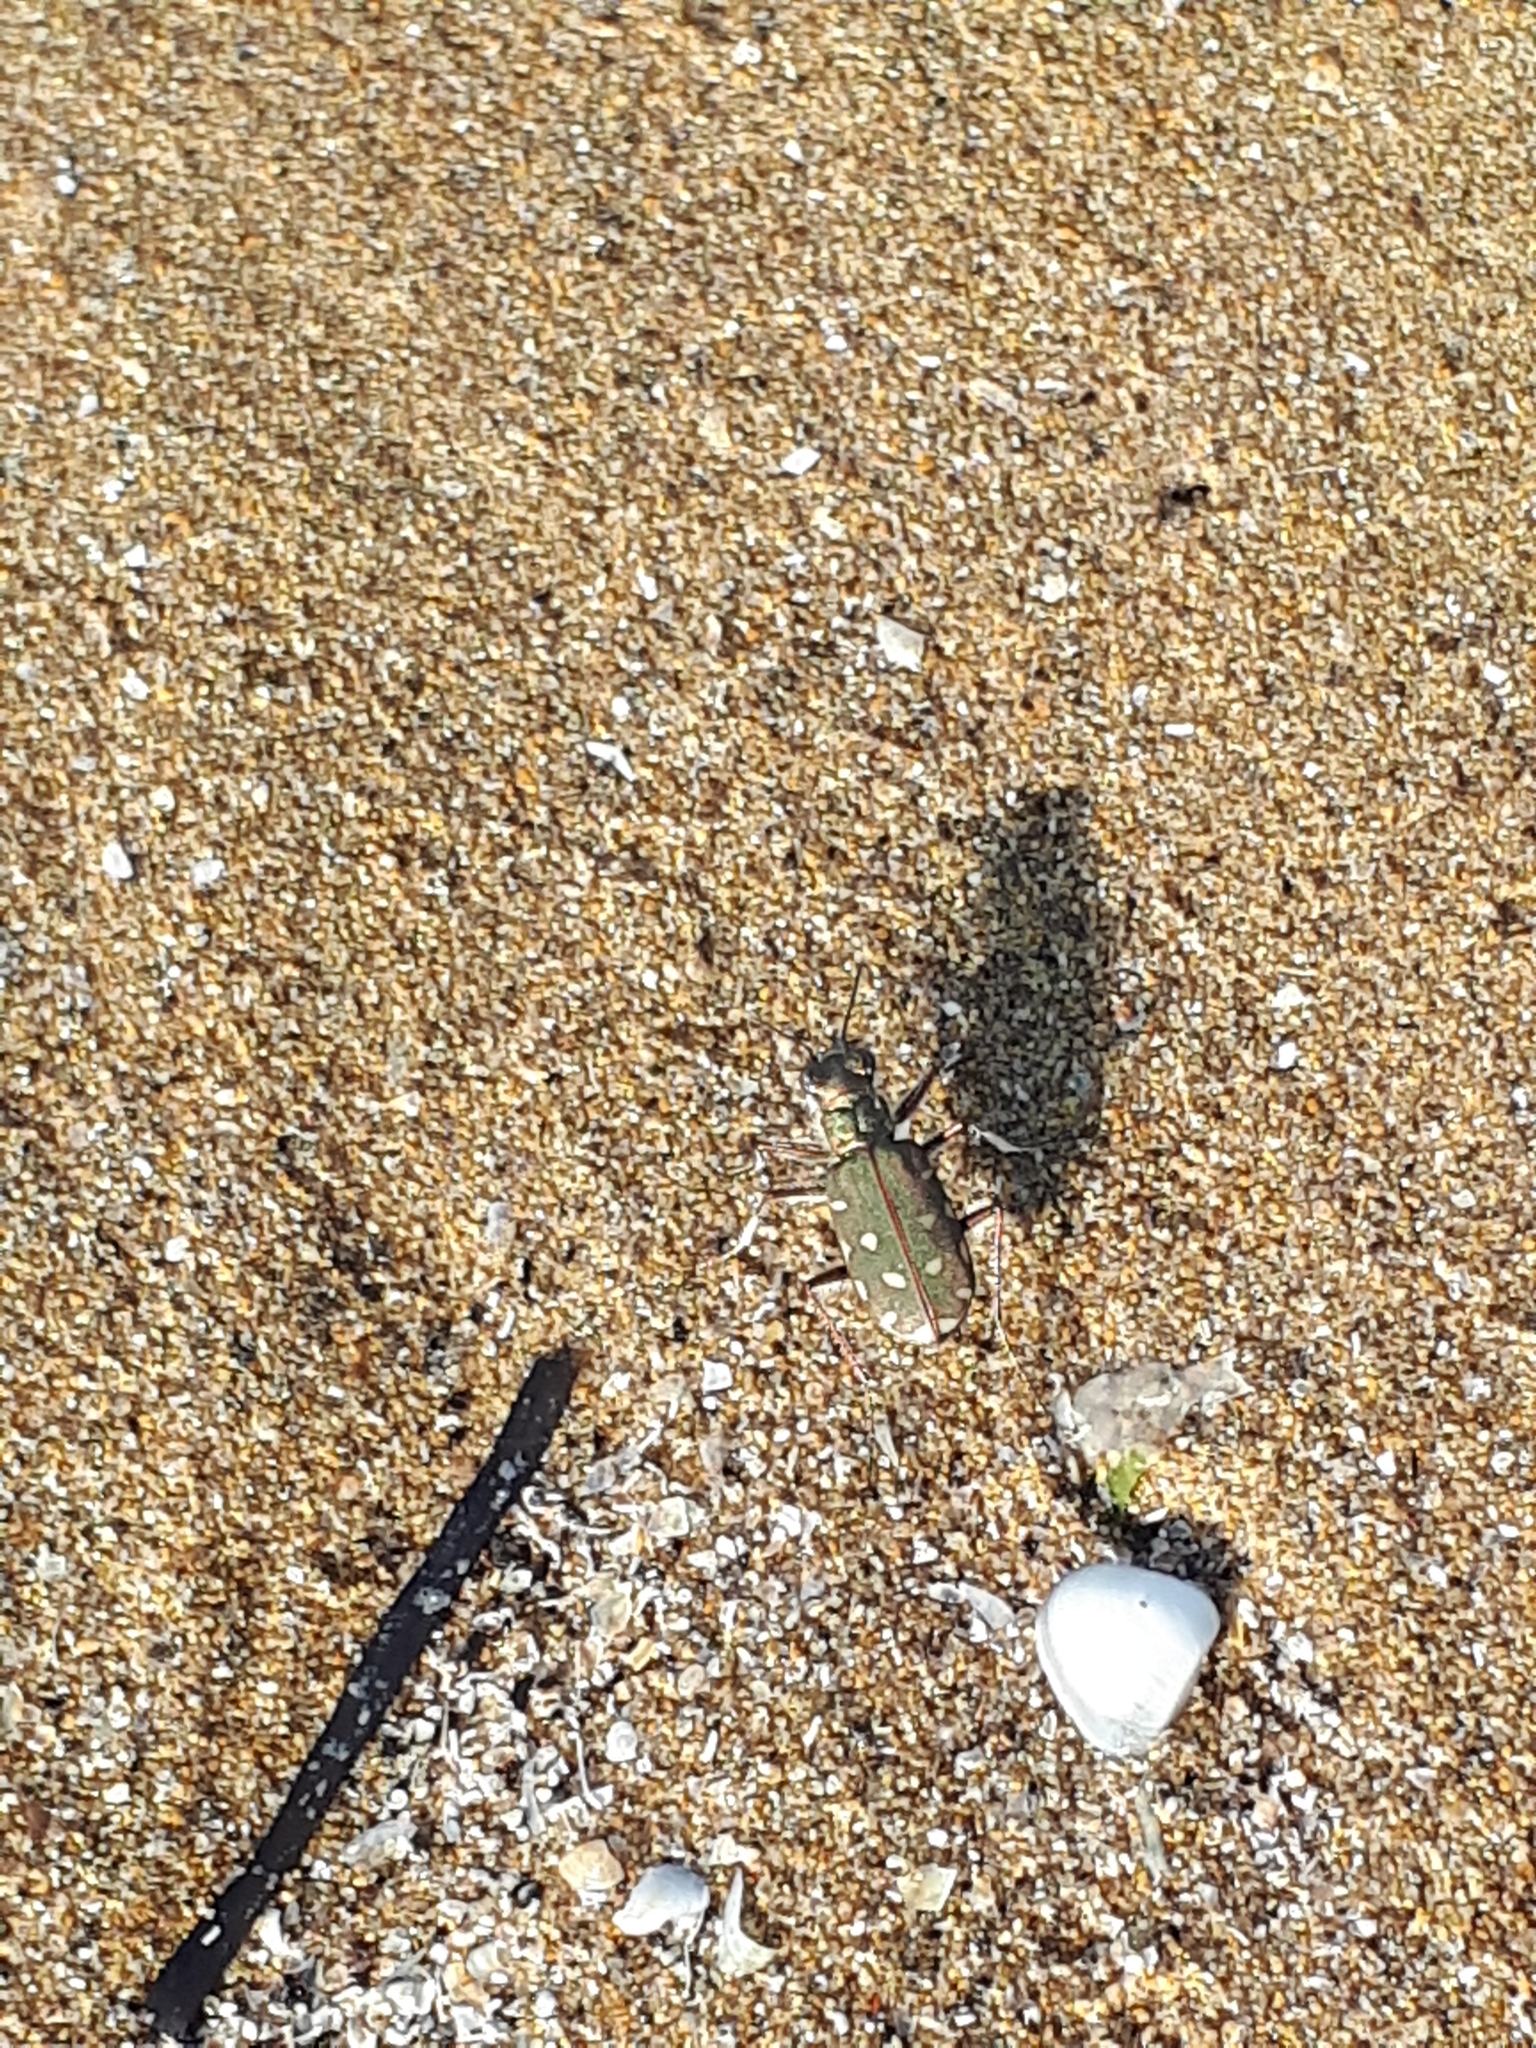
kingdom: Animalia
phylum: Arthropoda
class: Insecta
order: Coleoptera
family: Carabidae
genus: Cicindela
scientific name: Cicindela littoralis
